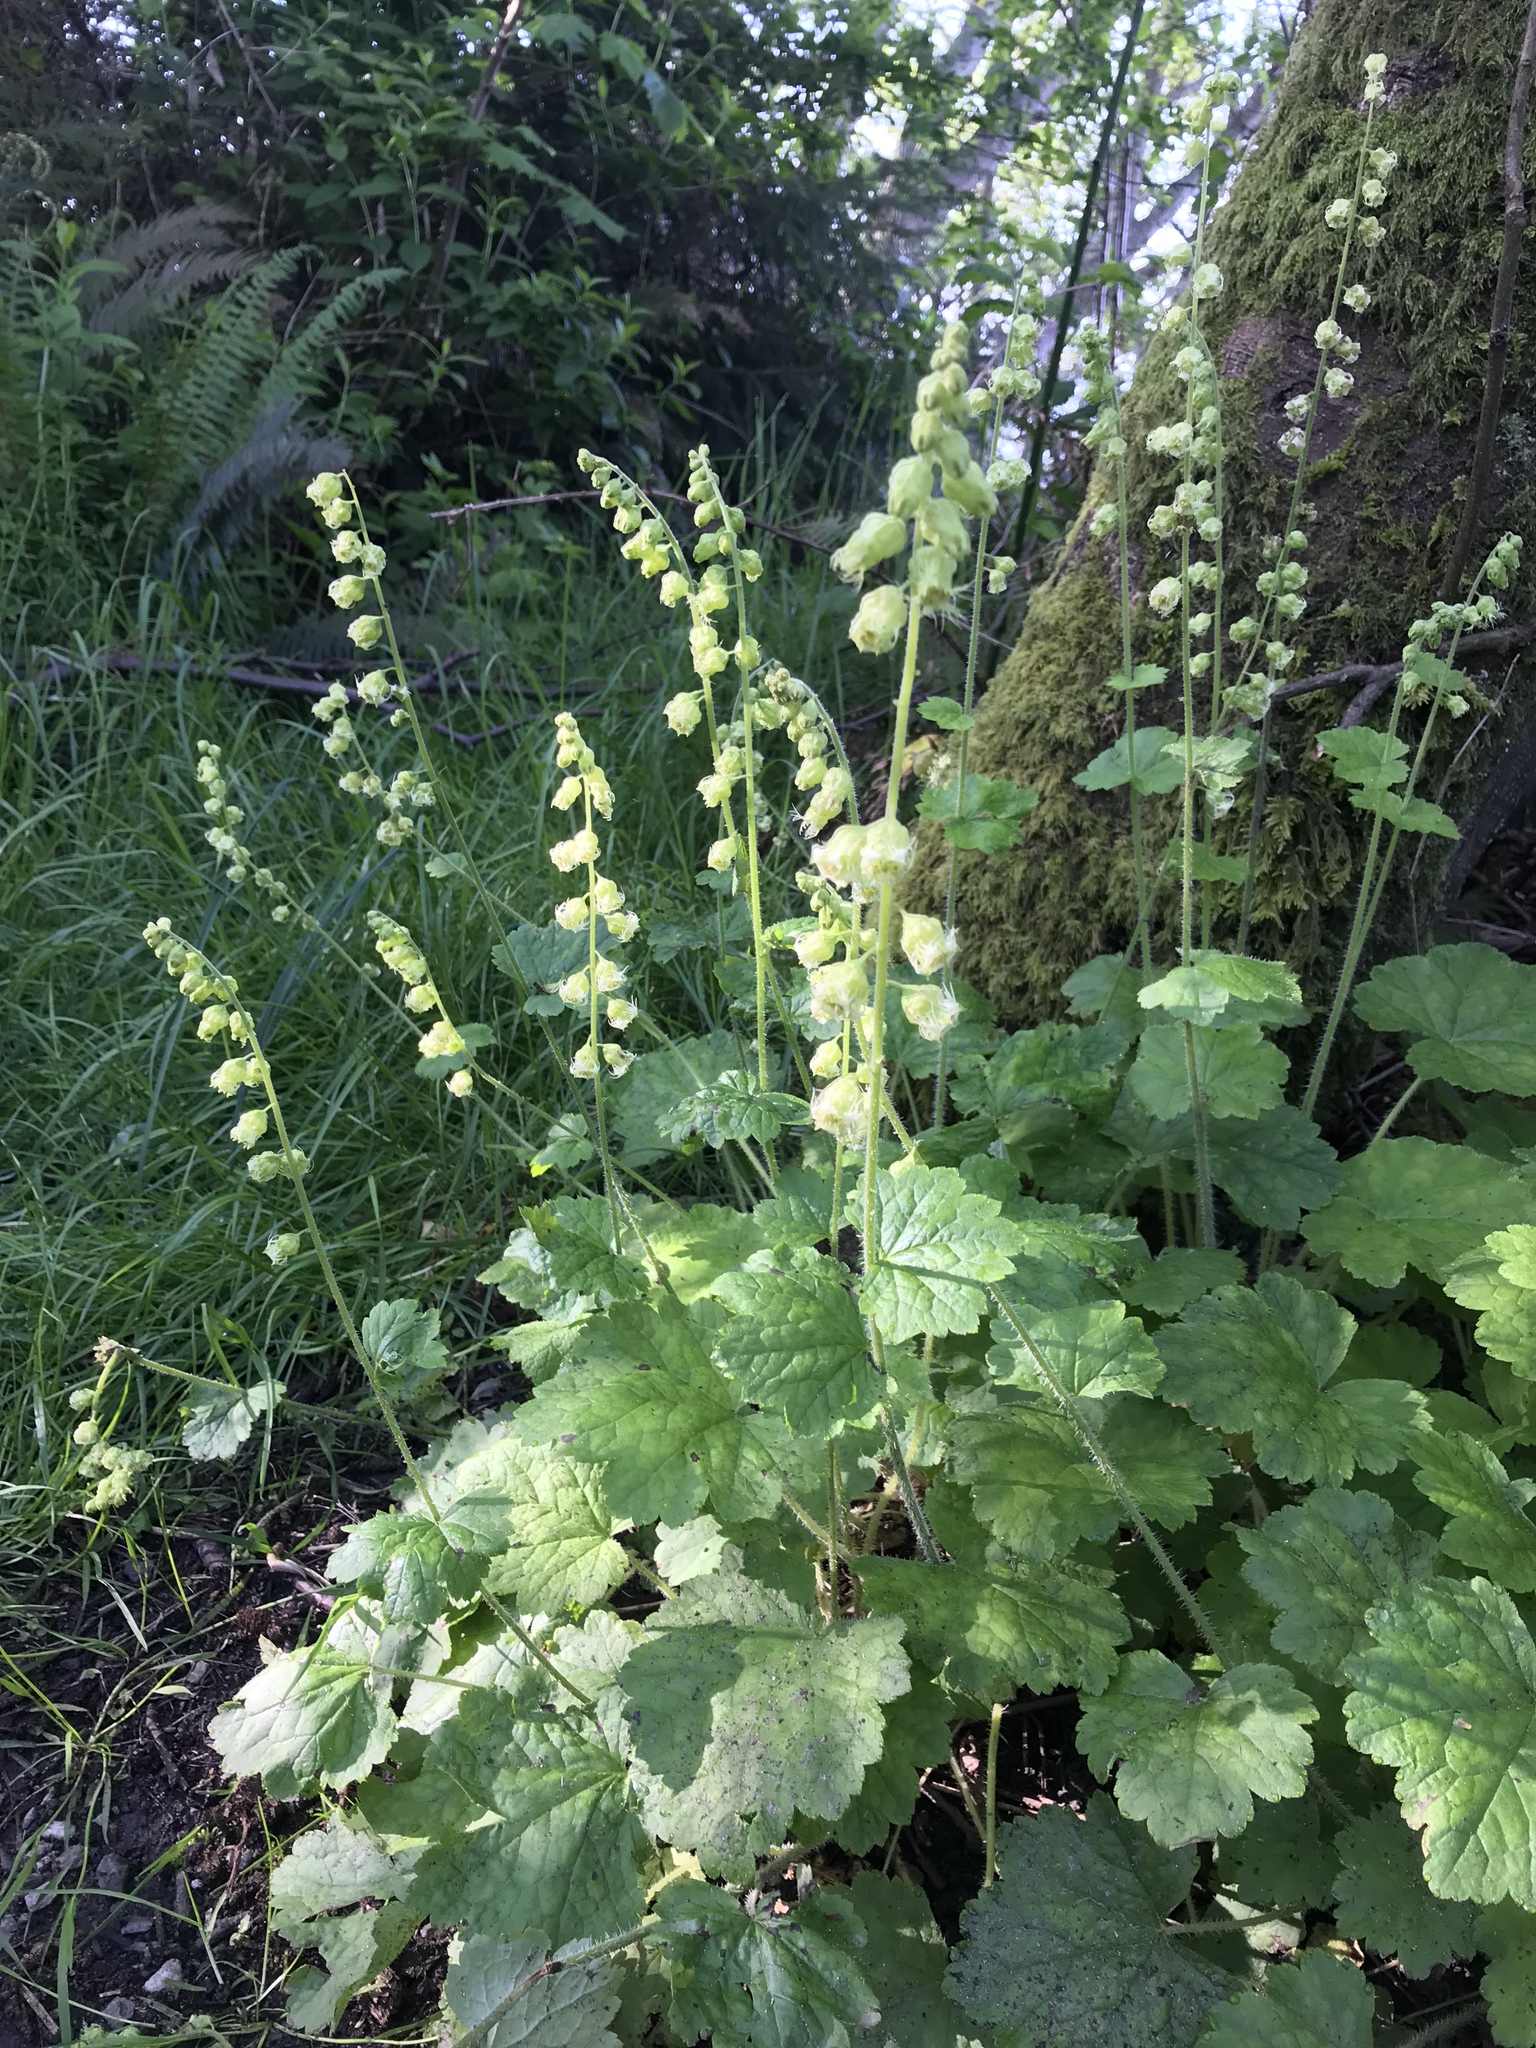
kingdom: Plantae
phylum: Tracheophyta
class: Magnoliopsida
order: Saxifragales
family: Saxifragaceae
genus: Tellima
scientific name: Tellima grandiflora
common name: Fringecups
